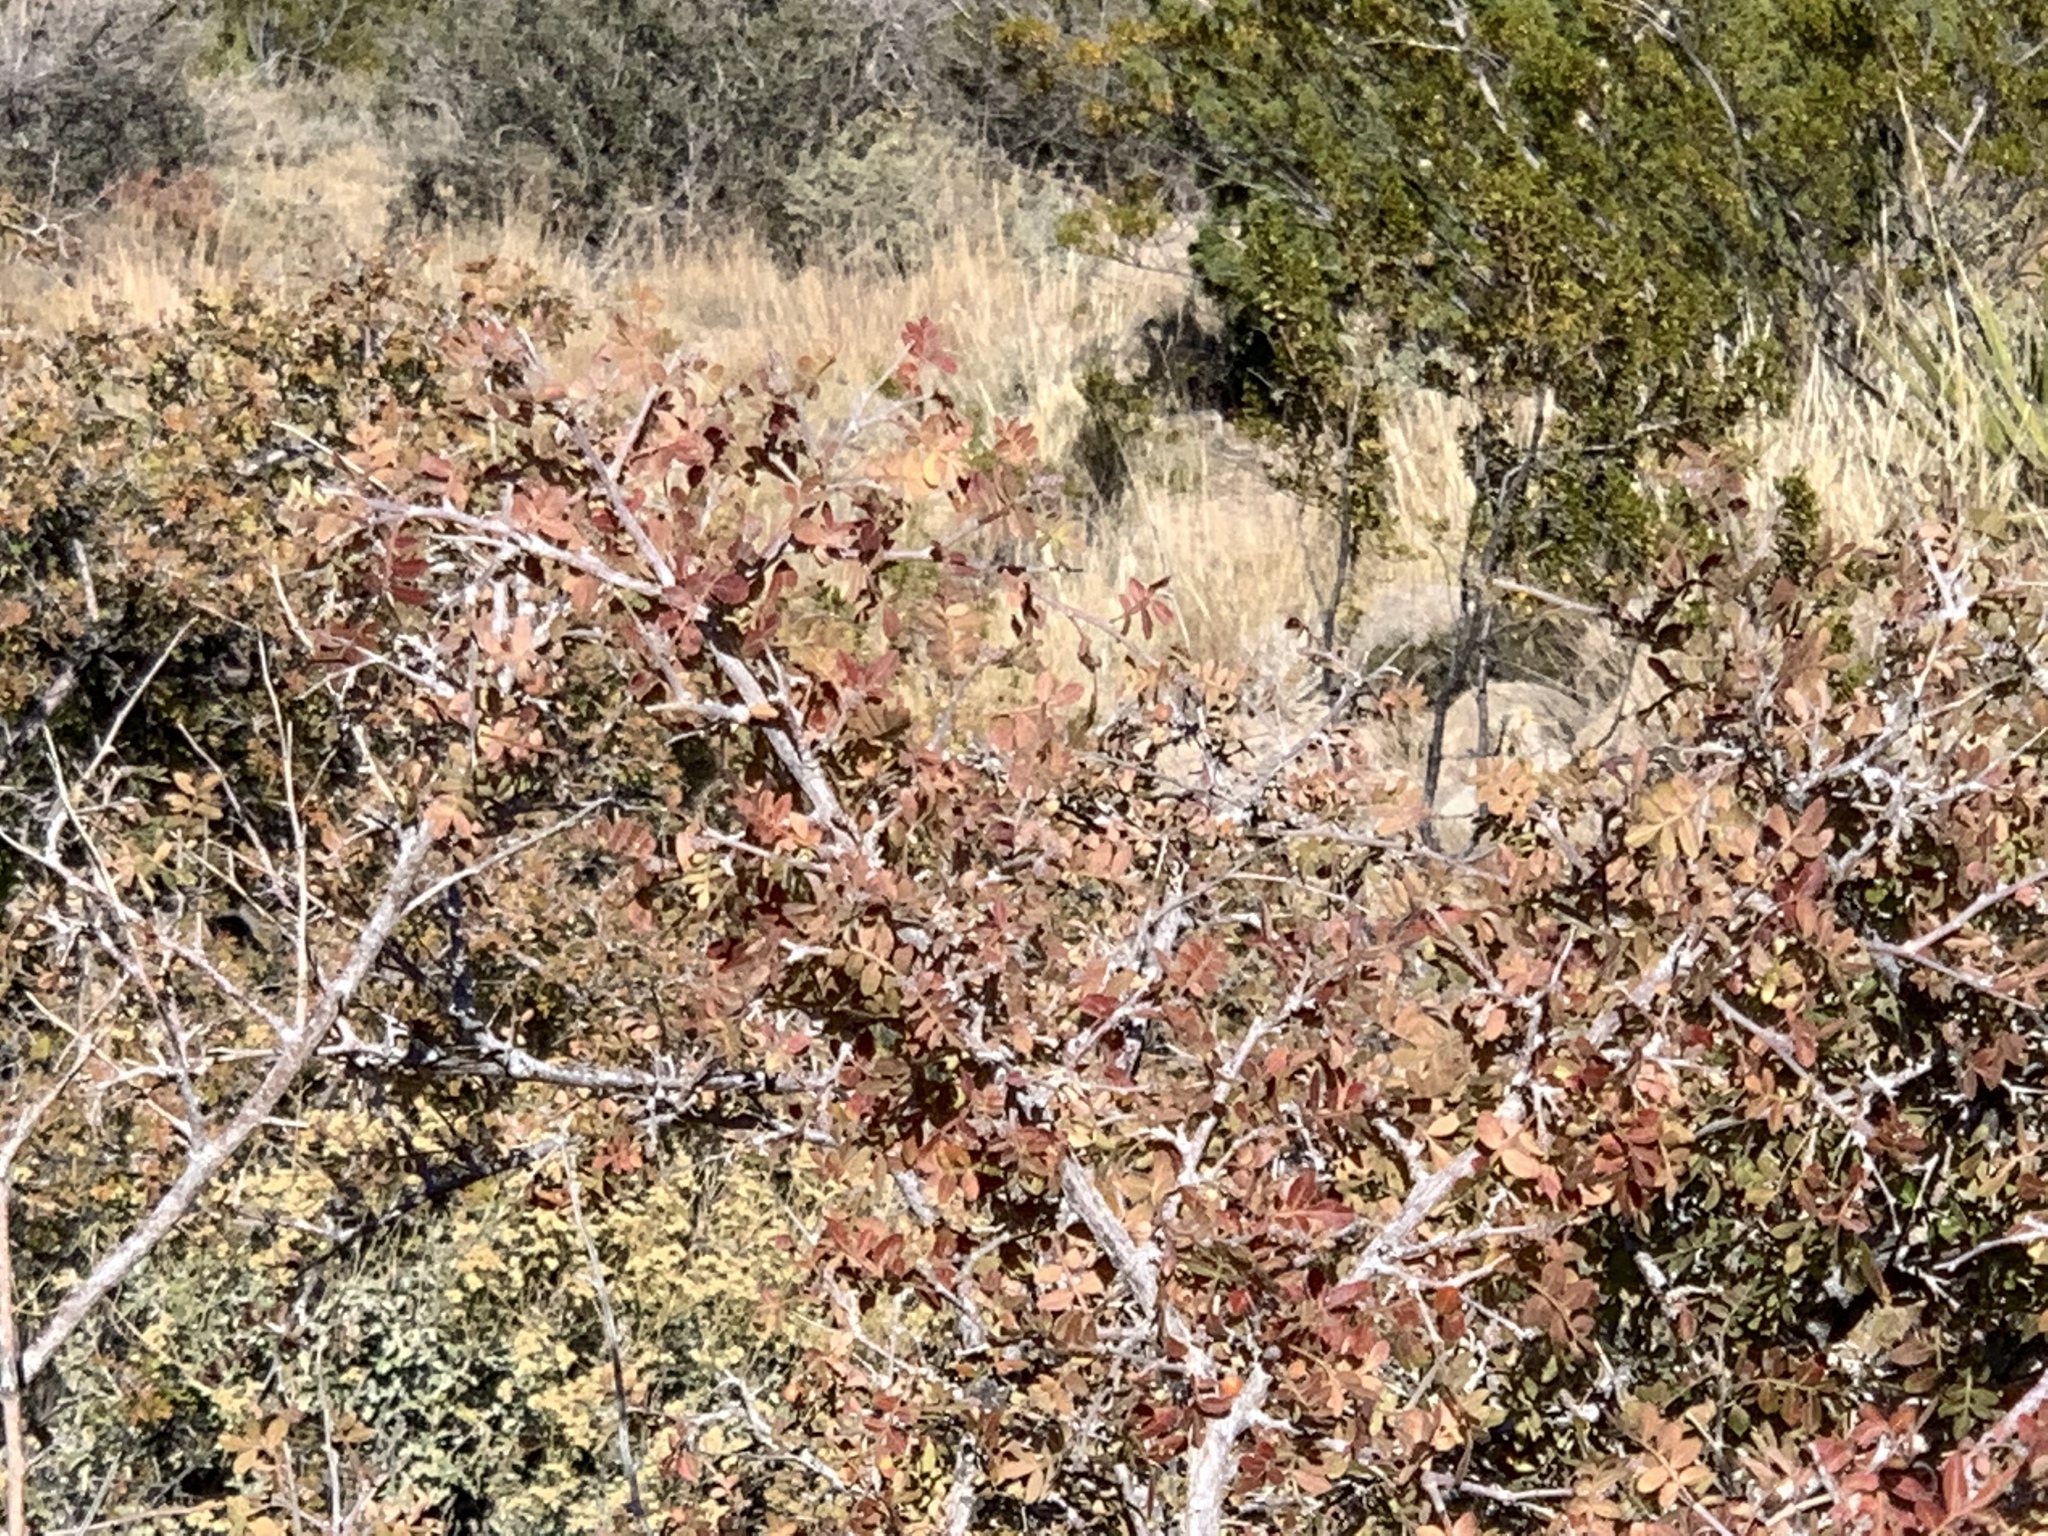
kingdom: Plantae
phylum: Tracheophyta
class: Magnoliopsida
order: Sapindales
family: Anacardiaceae
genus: Rhus
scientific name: Rhus microphylla
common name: Desert sumac
